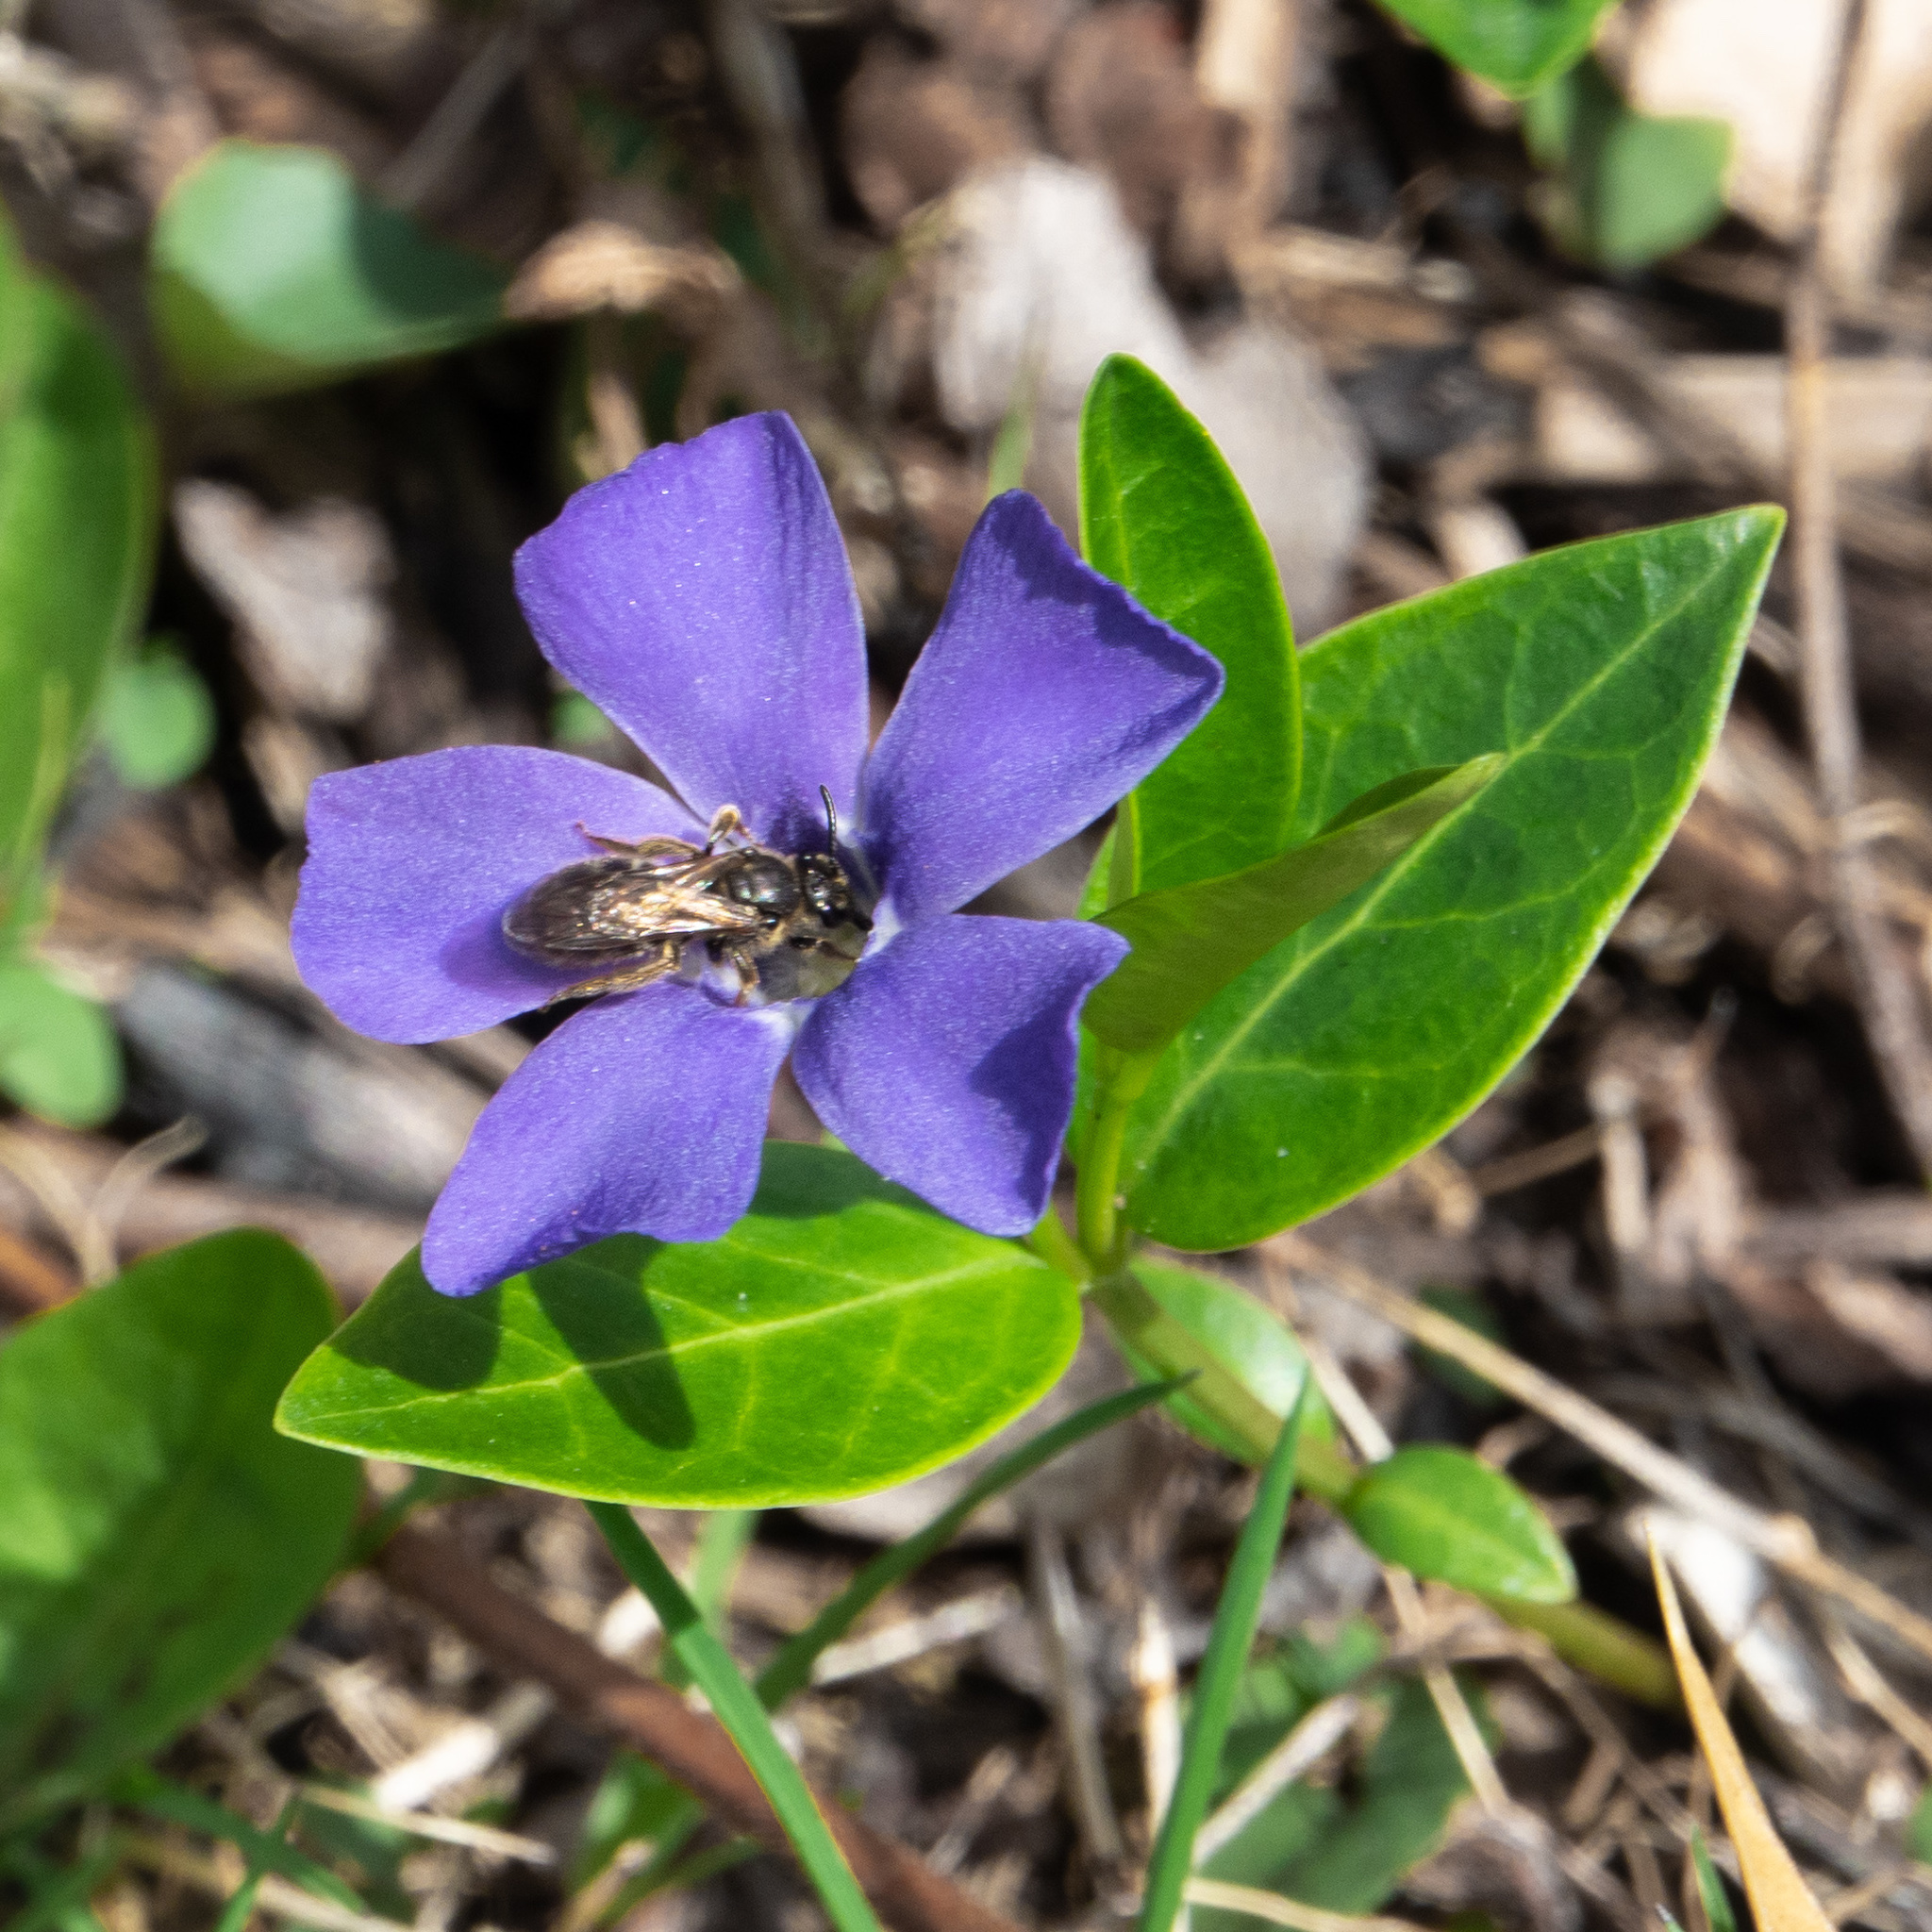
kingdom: Plantae
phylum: Tracheophyta
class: Magnoliopsida
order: Gentianales
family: Apocynaceae
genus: Vinca
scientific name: Vinca minor
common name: Lesser periwinkle
